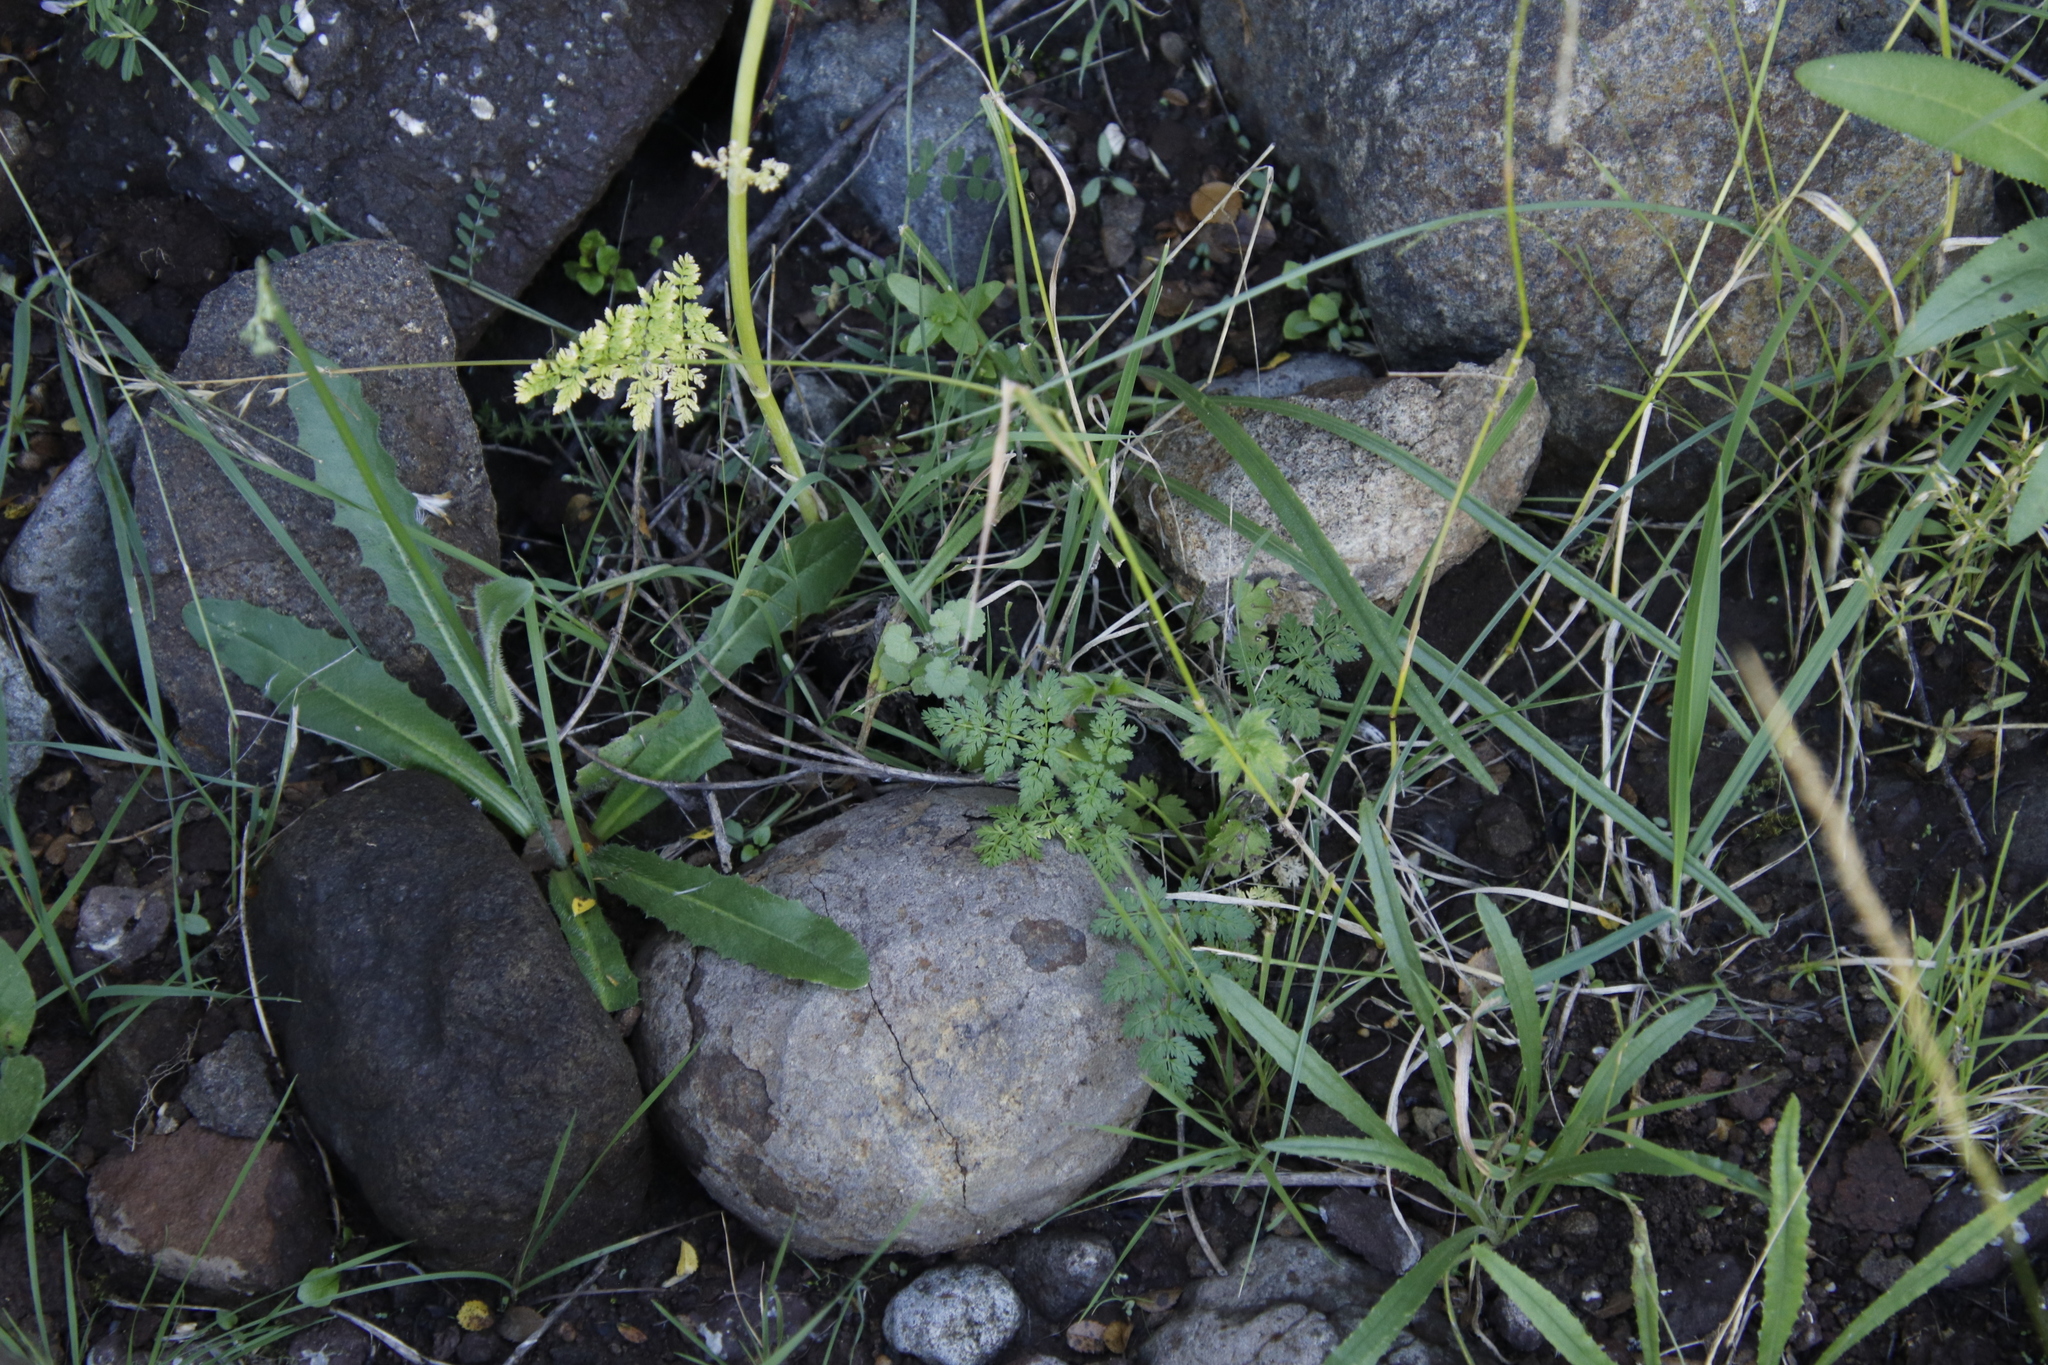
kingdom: Plantae
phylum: Tracheophyta
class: Magnoliopsida
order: Apiales
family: Apiaceae
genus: Conium
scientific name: Conium fontanum
